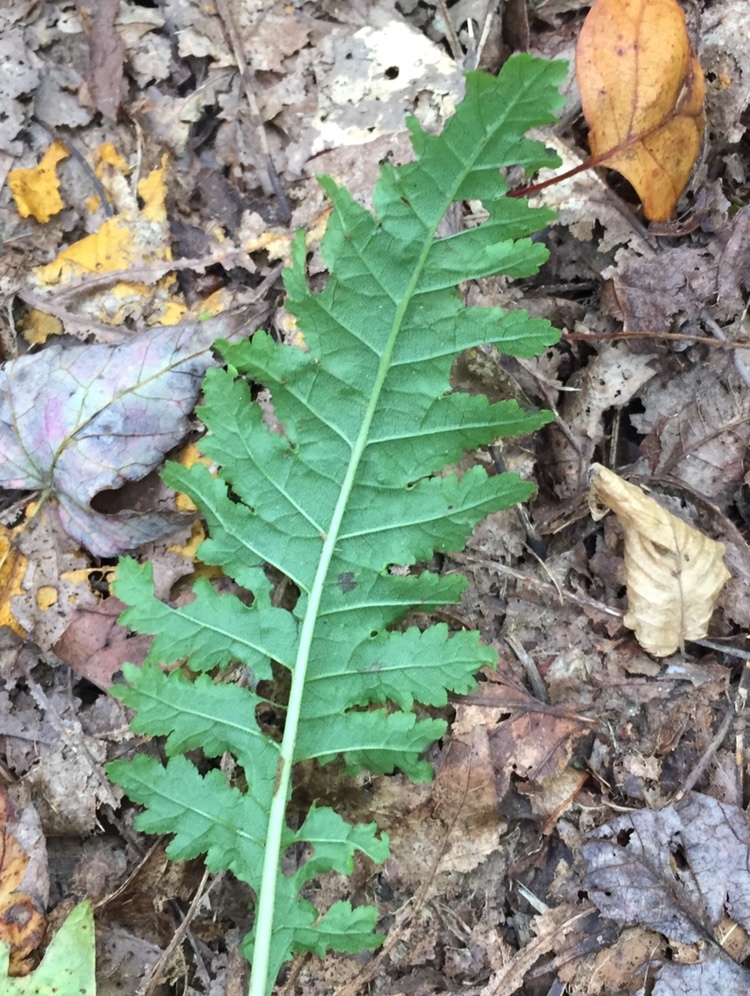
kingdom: Plantae
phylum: Tracheophyta
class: Magnoliopsida
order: Lamiales
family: Orobanchaceae
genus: Pedicularis
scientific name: Pedicularis canadensis
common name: Early lousewort
